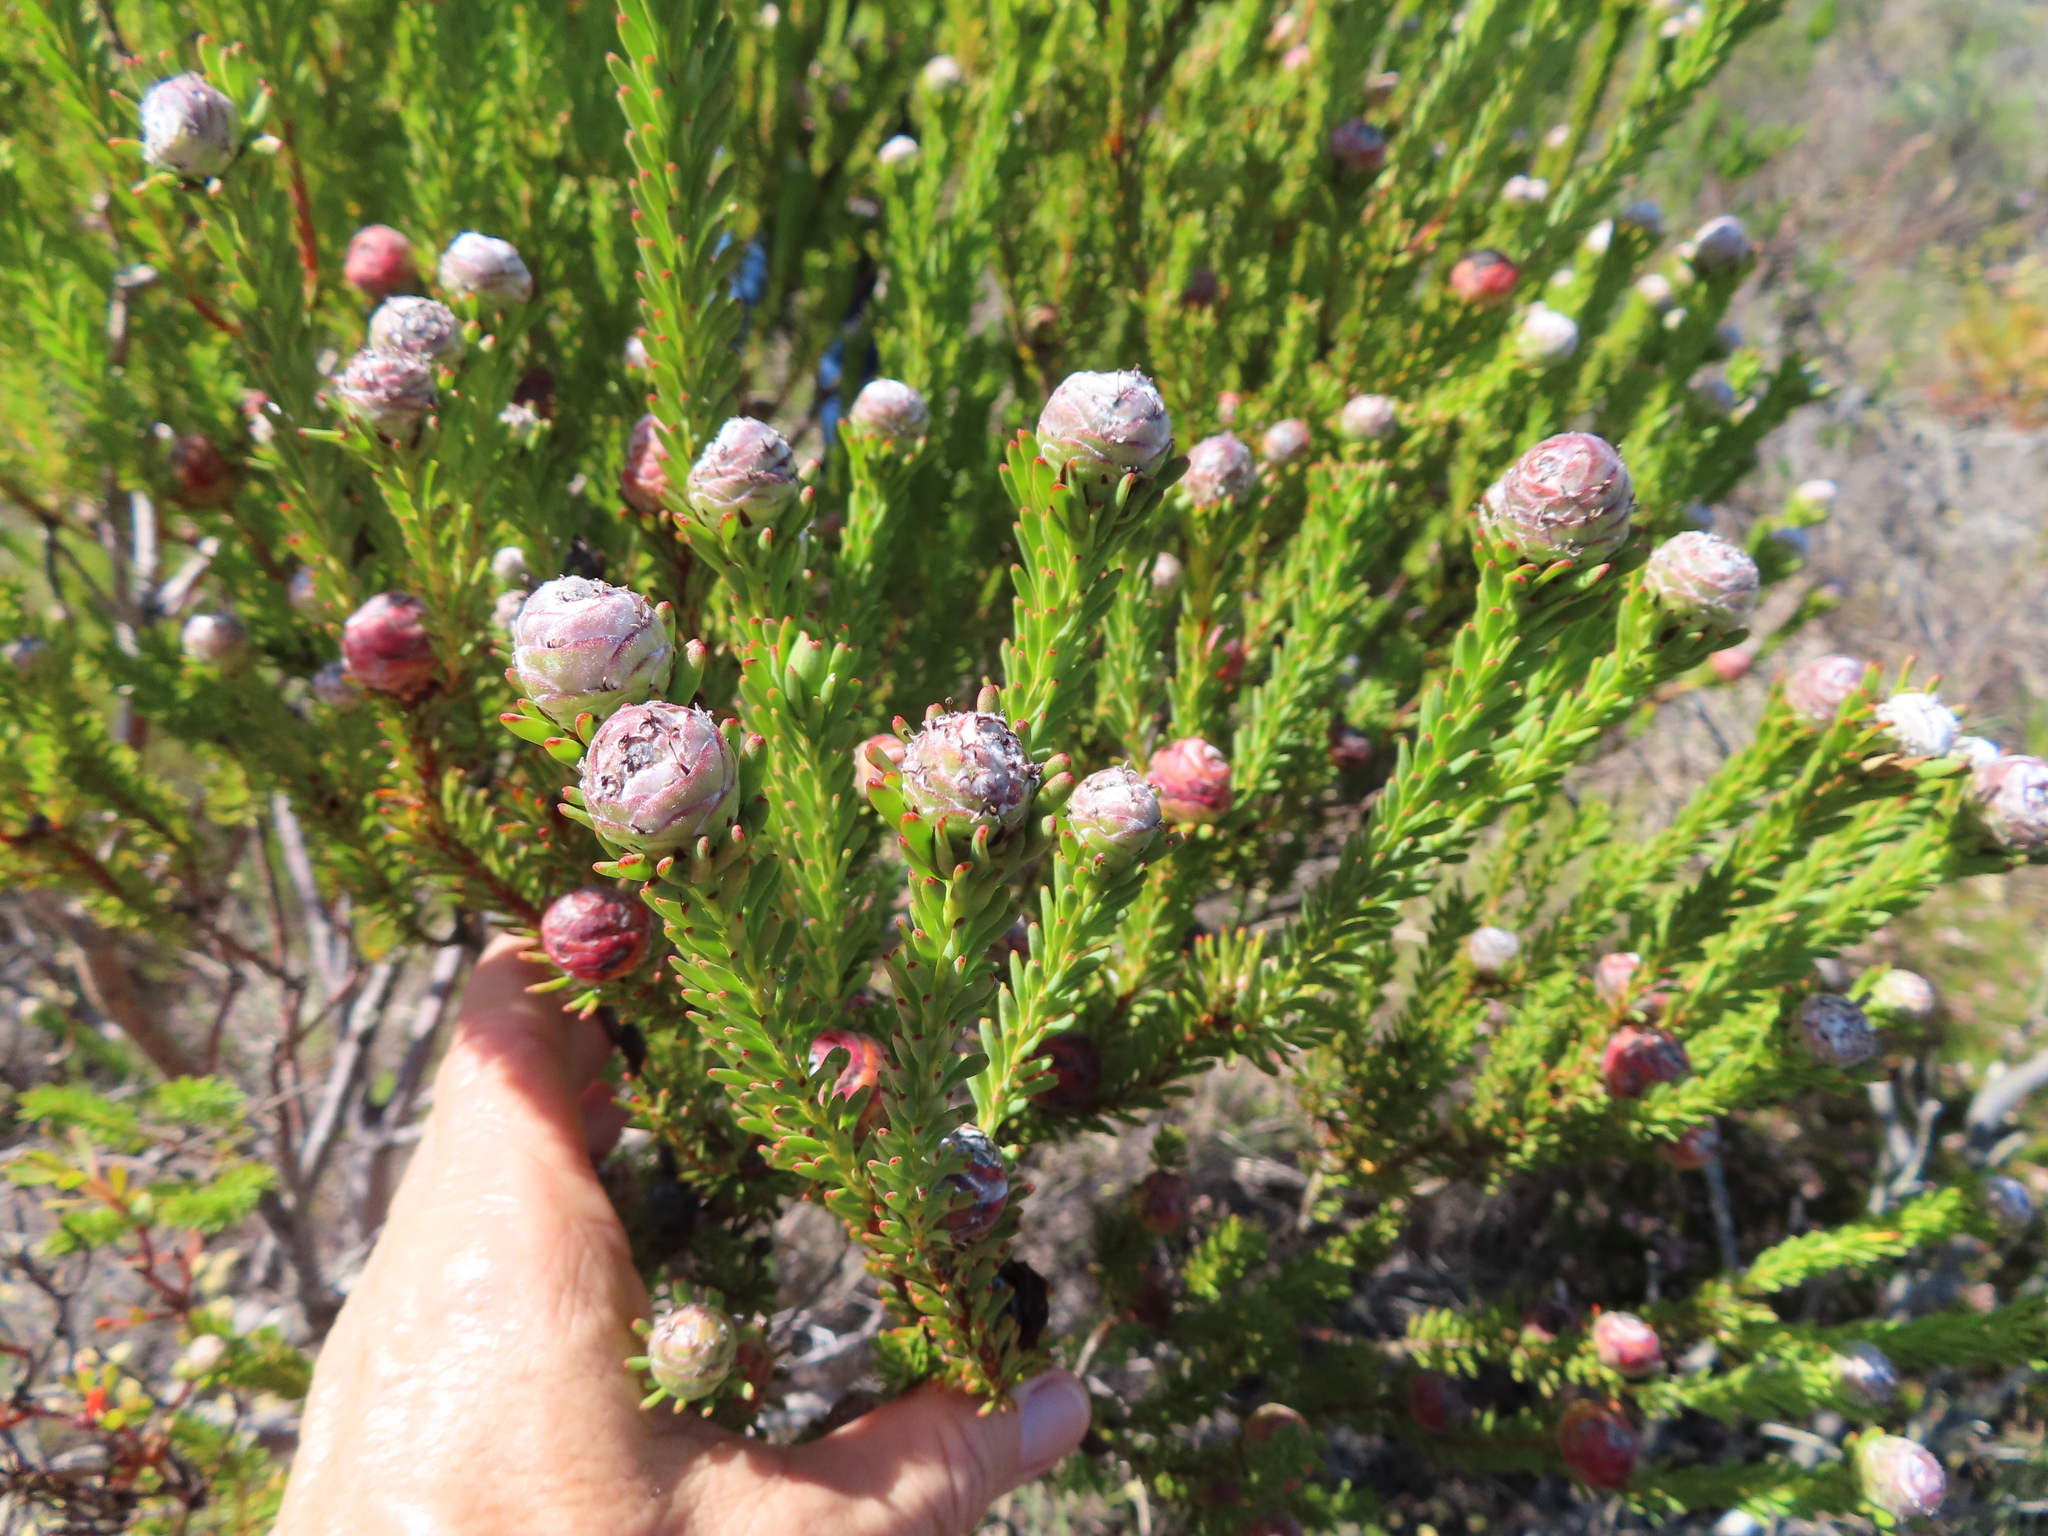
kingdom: Plantae
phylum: Tracheophyta
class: Magnoliopsida
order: Proteales
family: Proteaceae
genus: Leucadendron
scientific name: Leucadendron linifolium
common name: Line-leaf conebush
